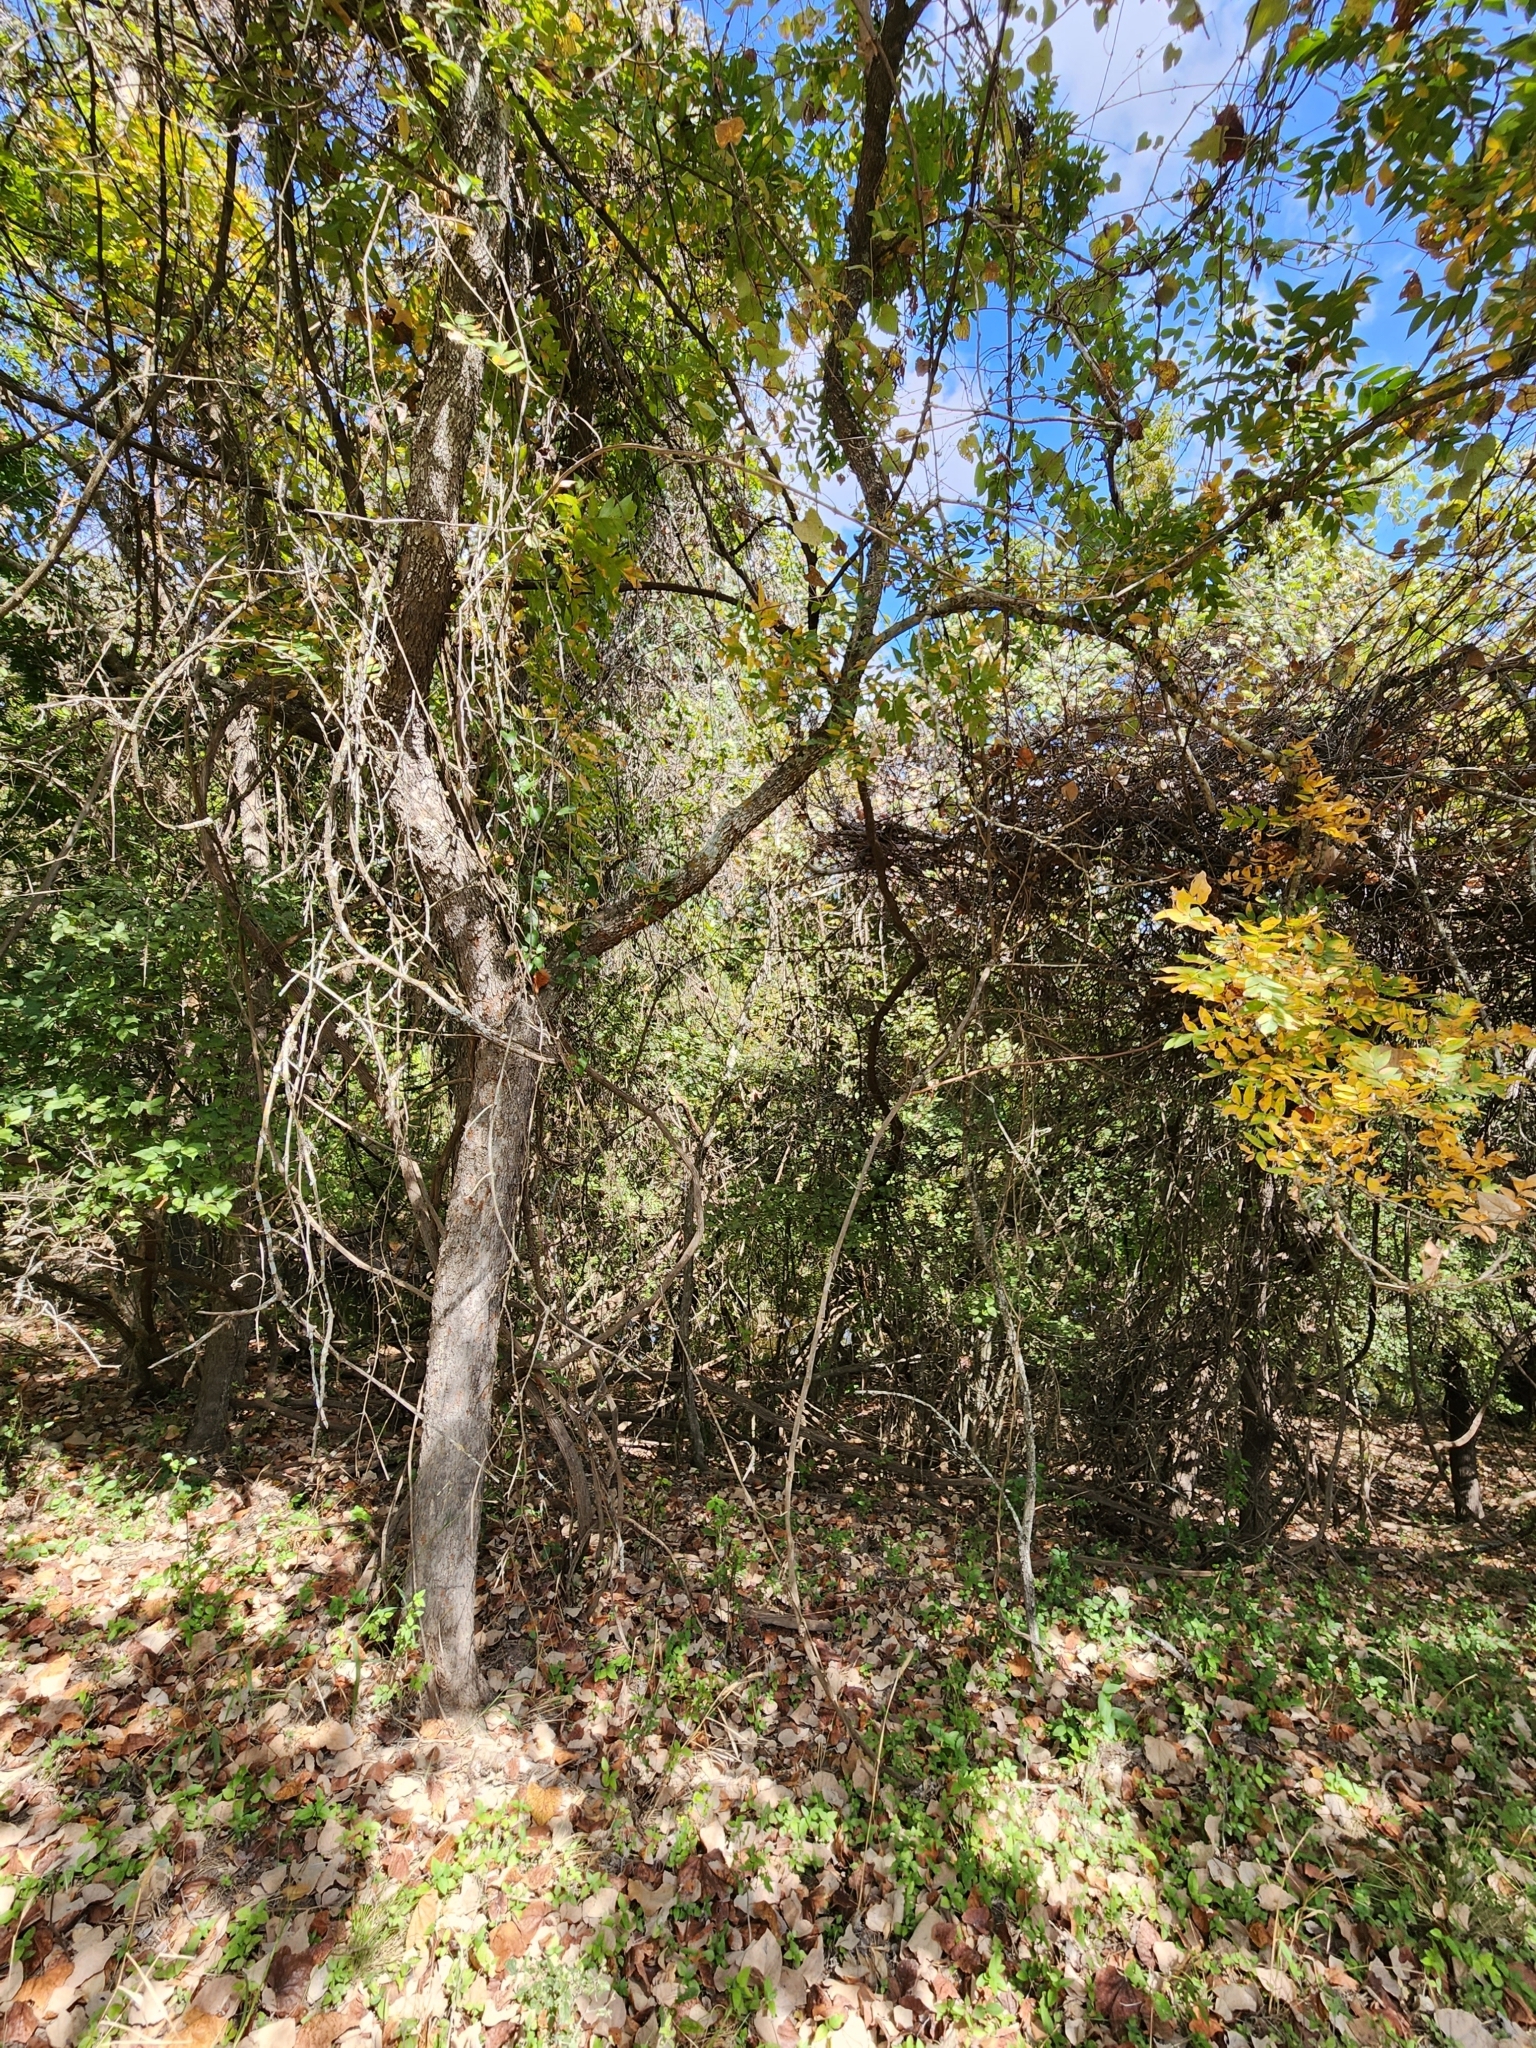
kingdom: Plantae
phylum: Tracheophyta
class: Magnoliopsida
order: Sapindales
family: Sapindaceae
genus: Sapindus
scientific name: Sapindus drummondii
